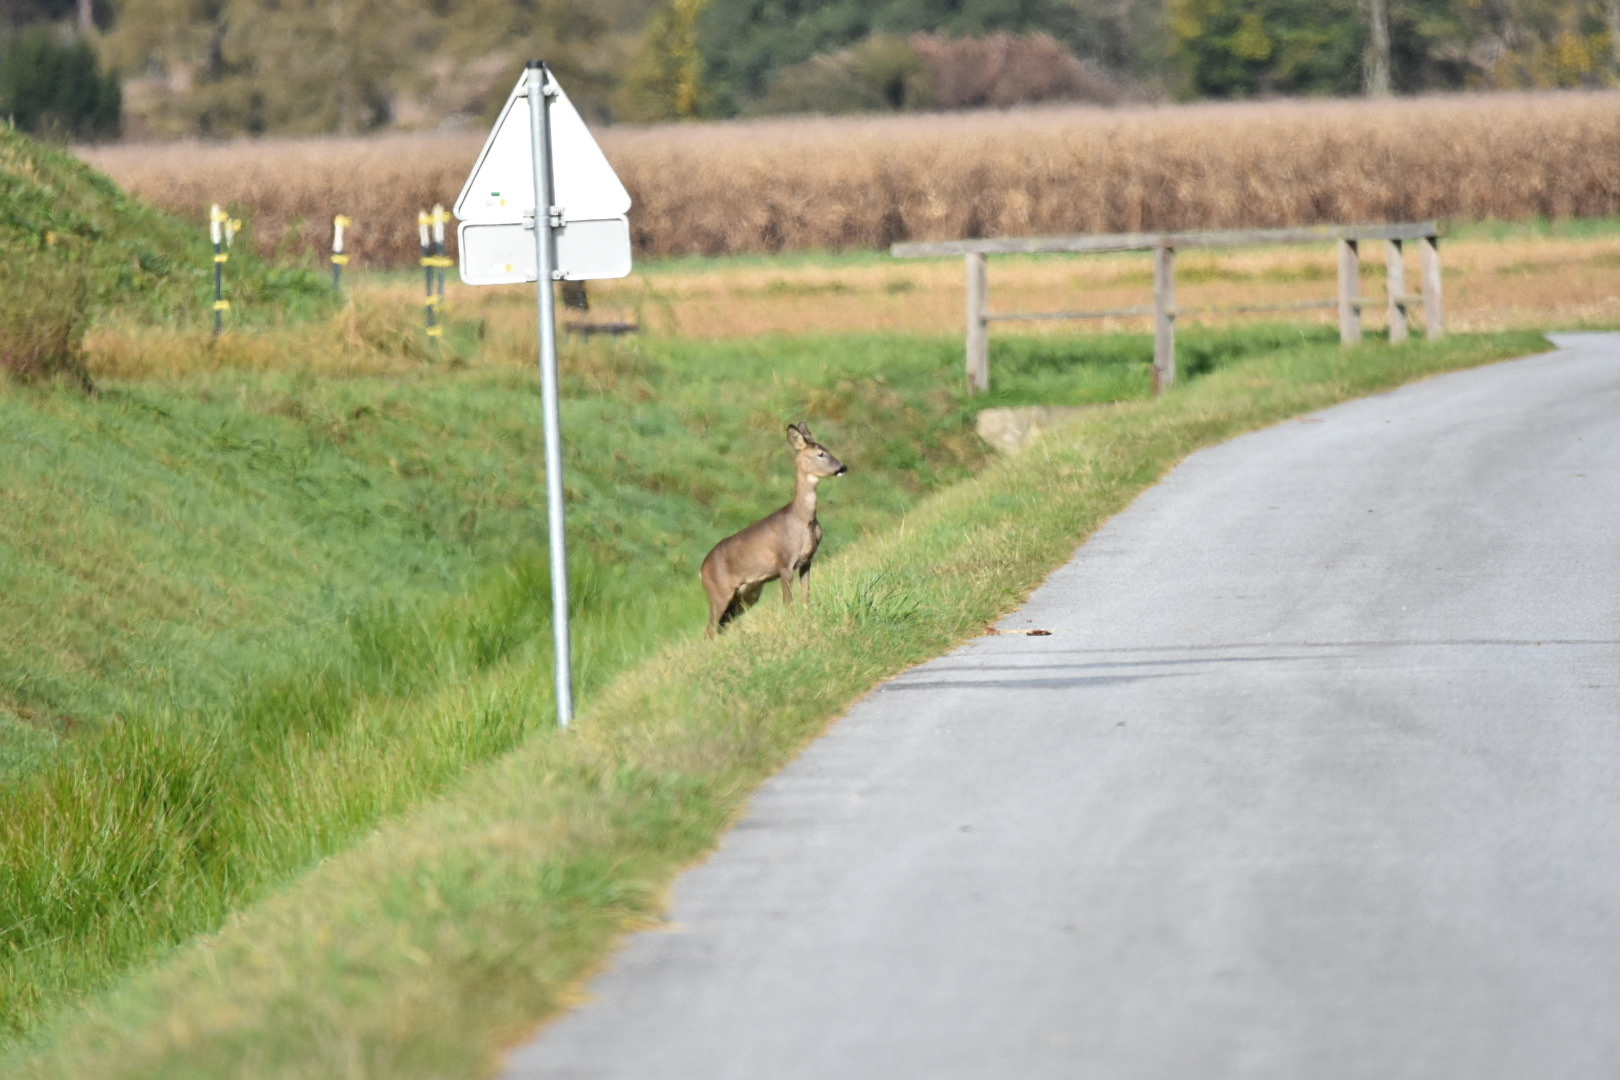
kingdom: Animalia
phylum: Chordata
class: Mammalia
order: Artiodactyla
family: Cervidae
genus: Capreolus
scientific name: Capreolus capreolus
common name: Western roe deer
